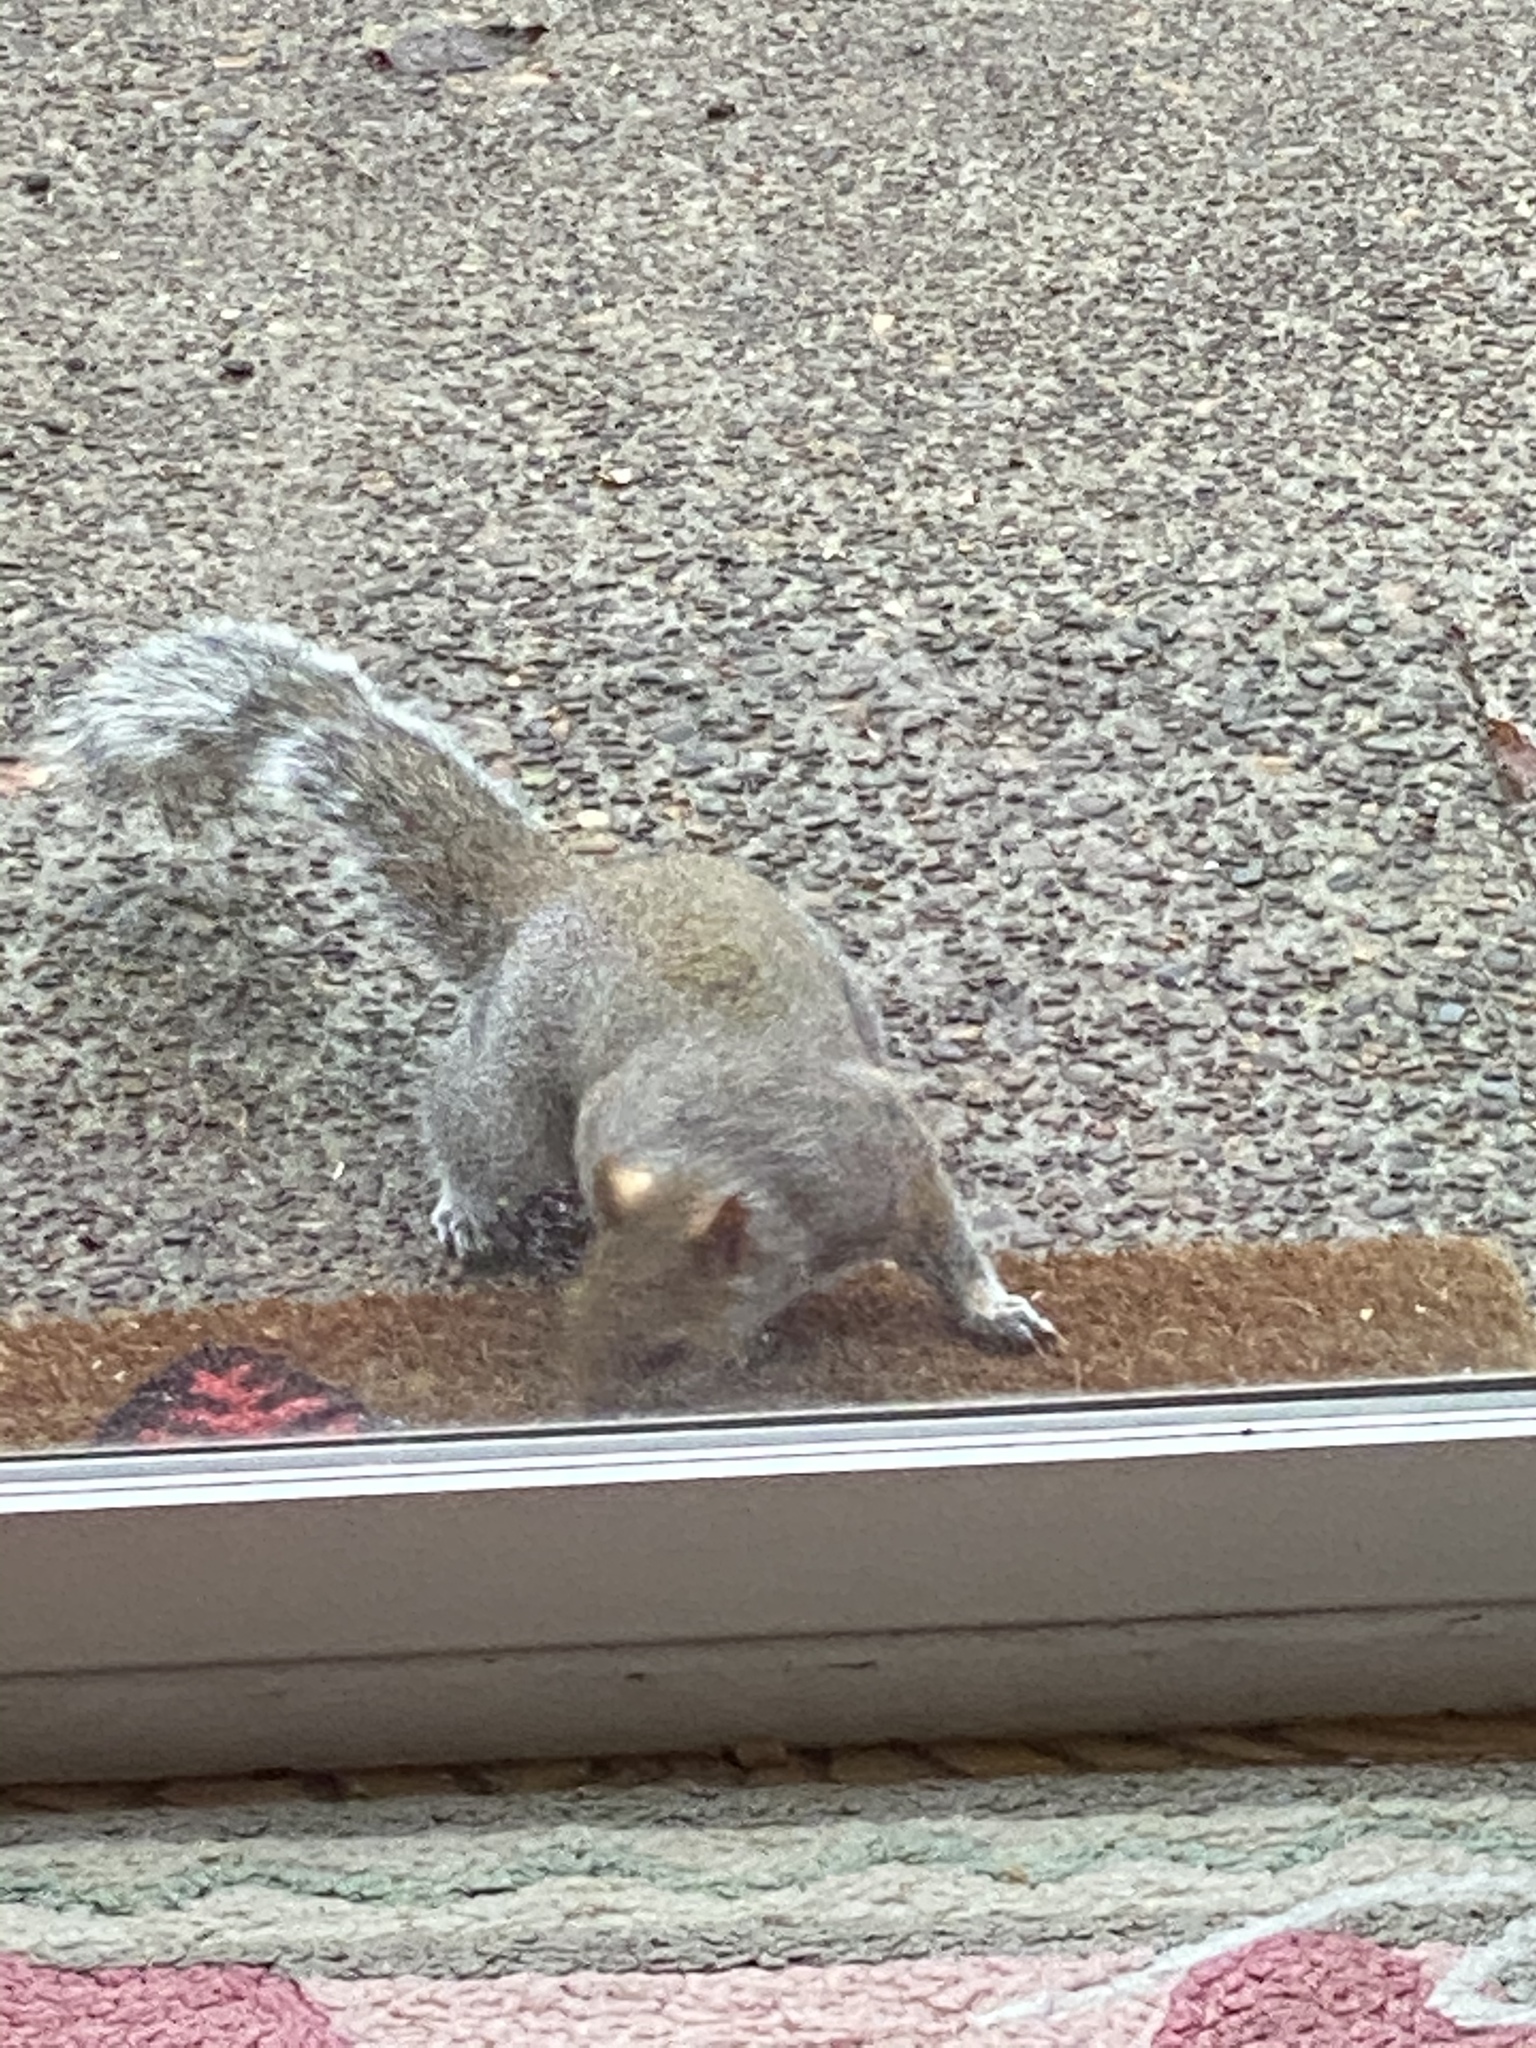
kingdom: Animalia
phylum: Chordata
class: Mammalia
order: Rodentia
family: Sciuridae
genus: Sciurus
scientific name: Sciurus carolinensis
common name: Eastern gray squirrel
